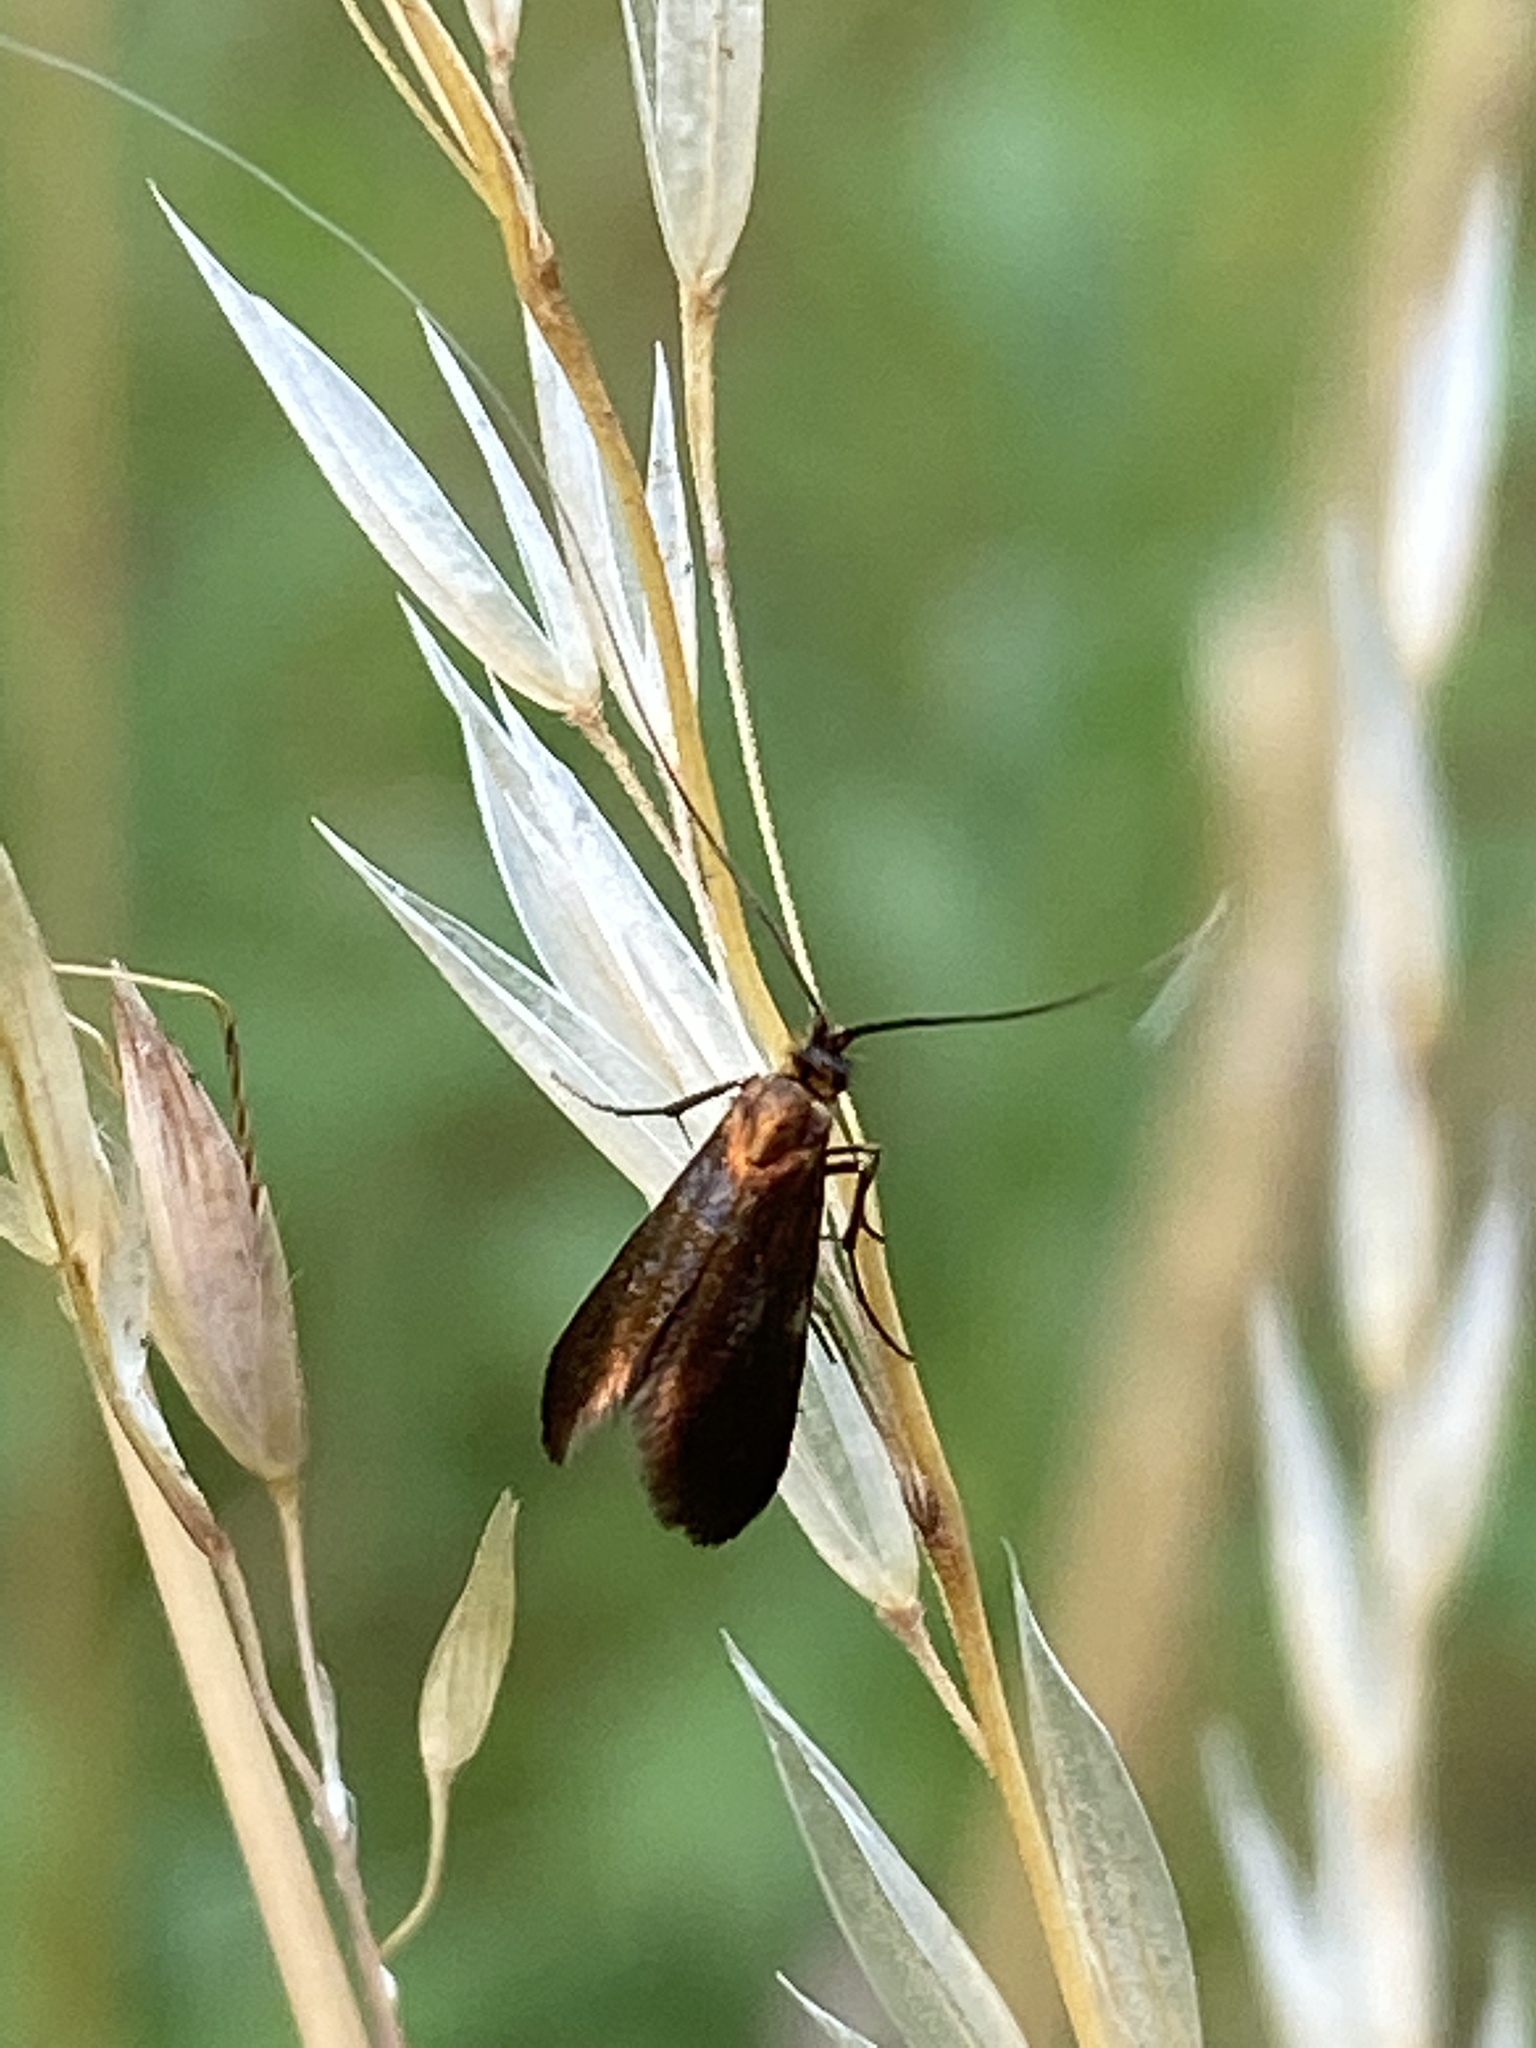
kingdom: Animalia
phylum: Arthropoda
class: Insecta
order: Lepidoptera
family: Adelidae
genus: Adela
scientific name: Adela violella
